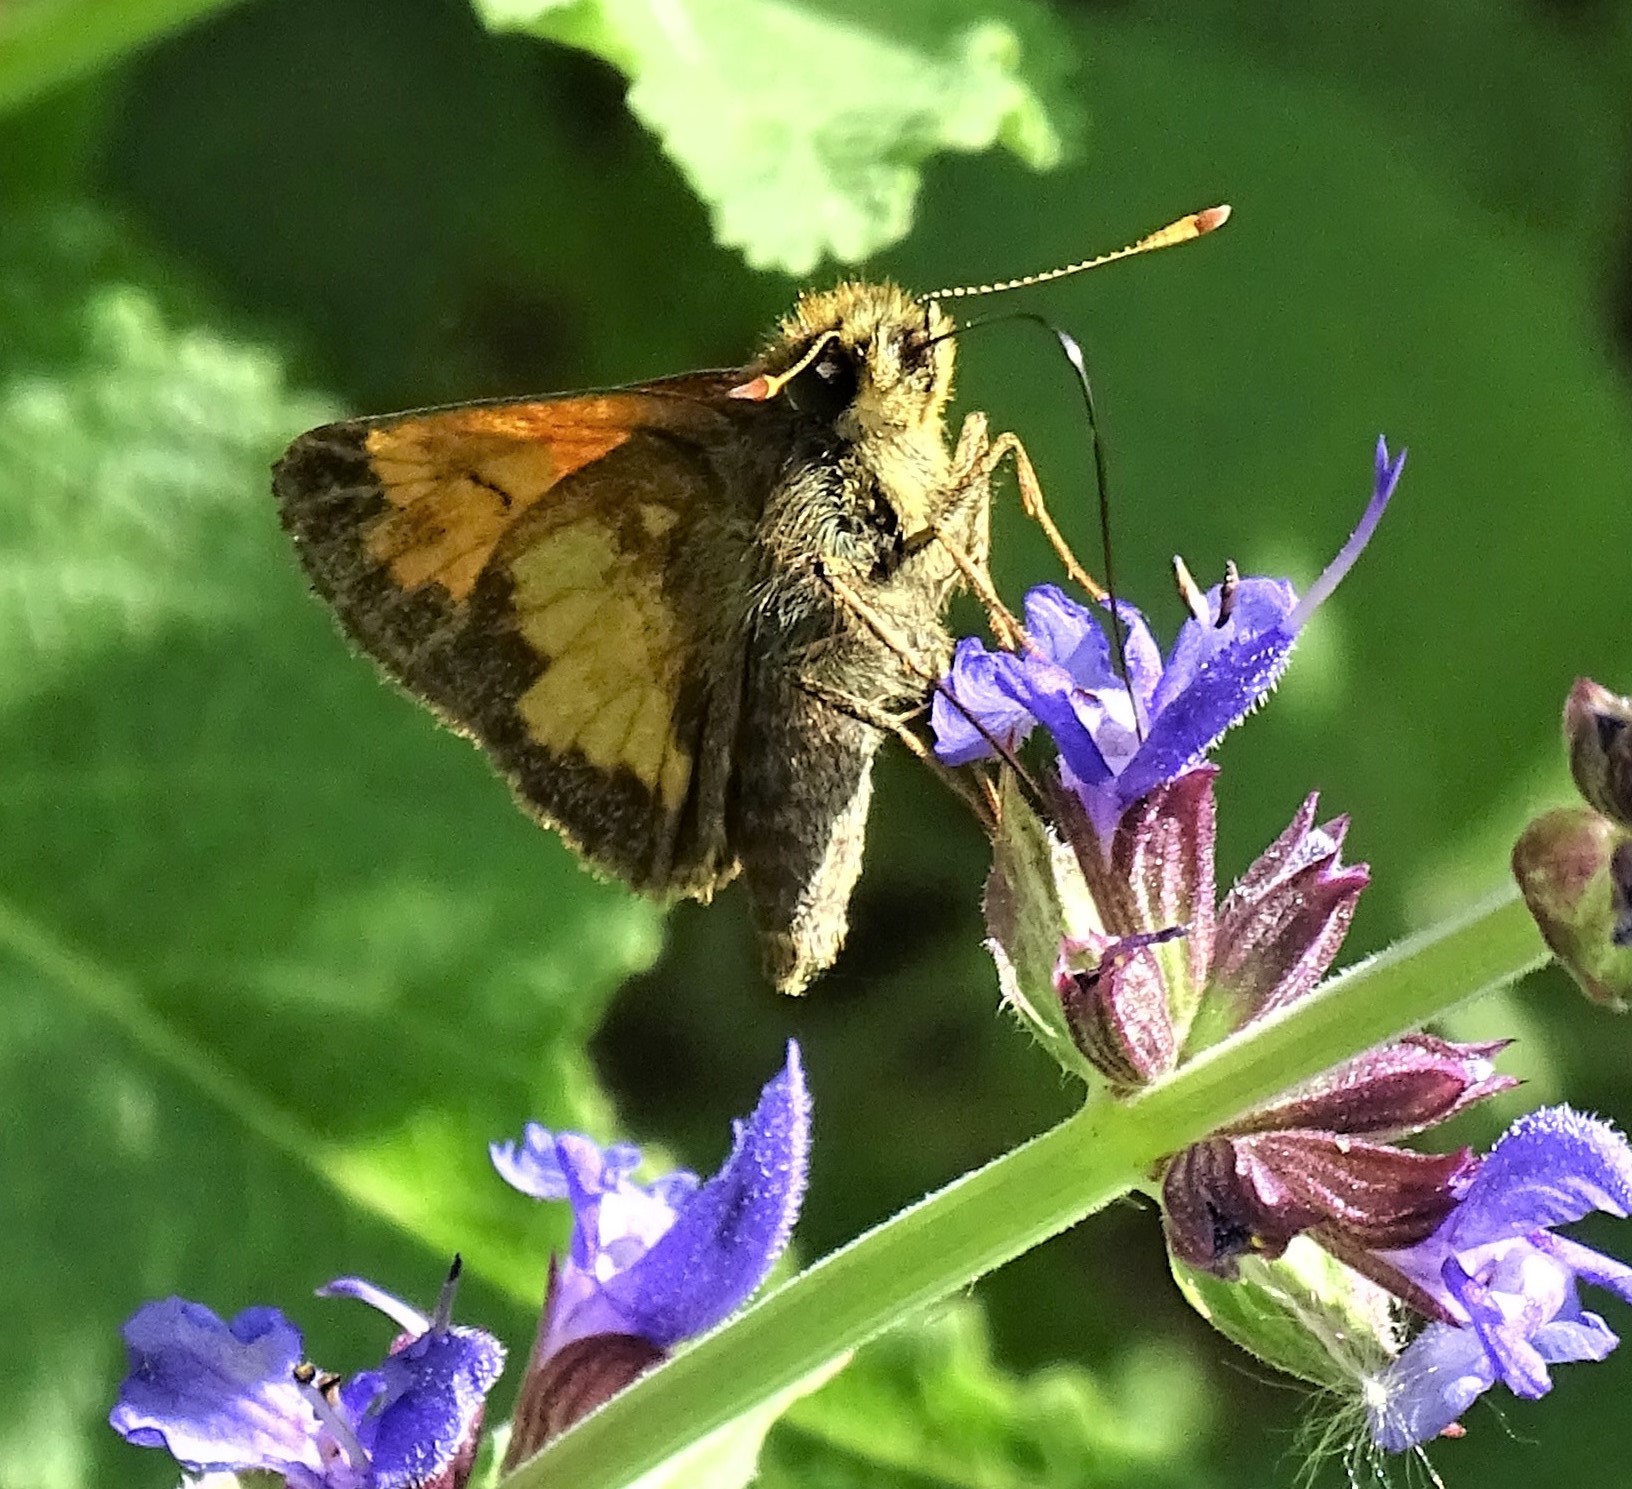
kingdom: Animalia
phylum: Arthropoda
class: Insecta
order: Lepidoptera
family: Hesperiidae
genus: Lon
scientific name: Lon hobomok
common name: Hobomok skipper
